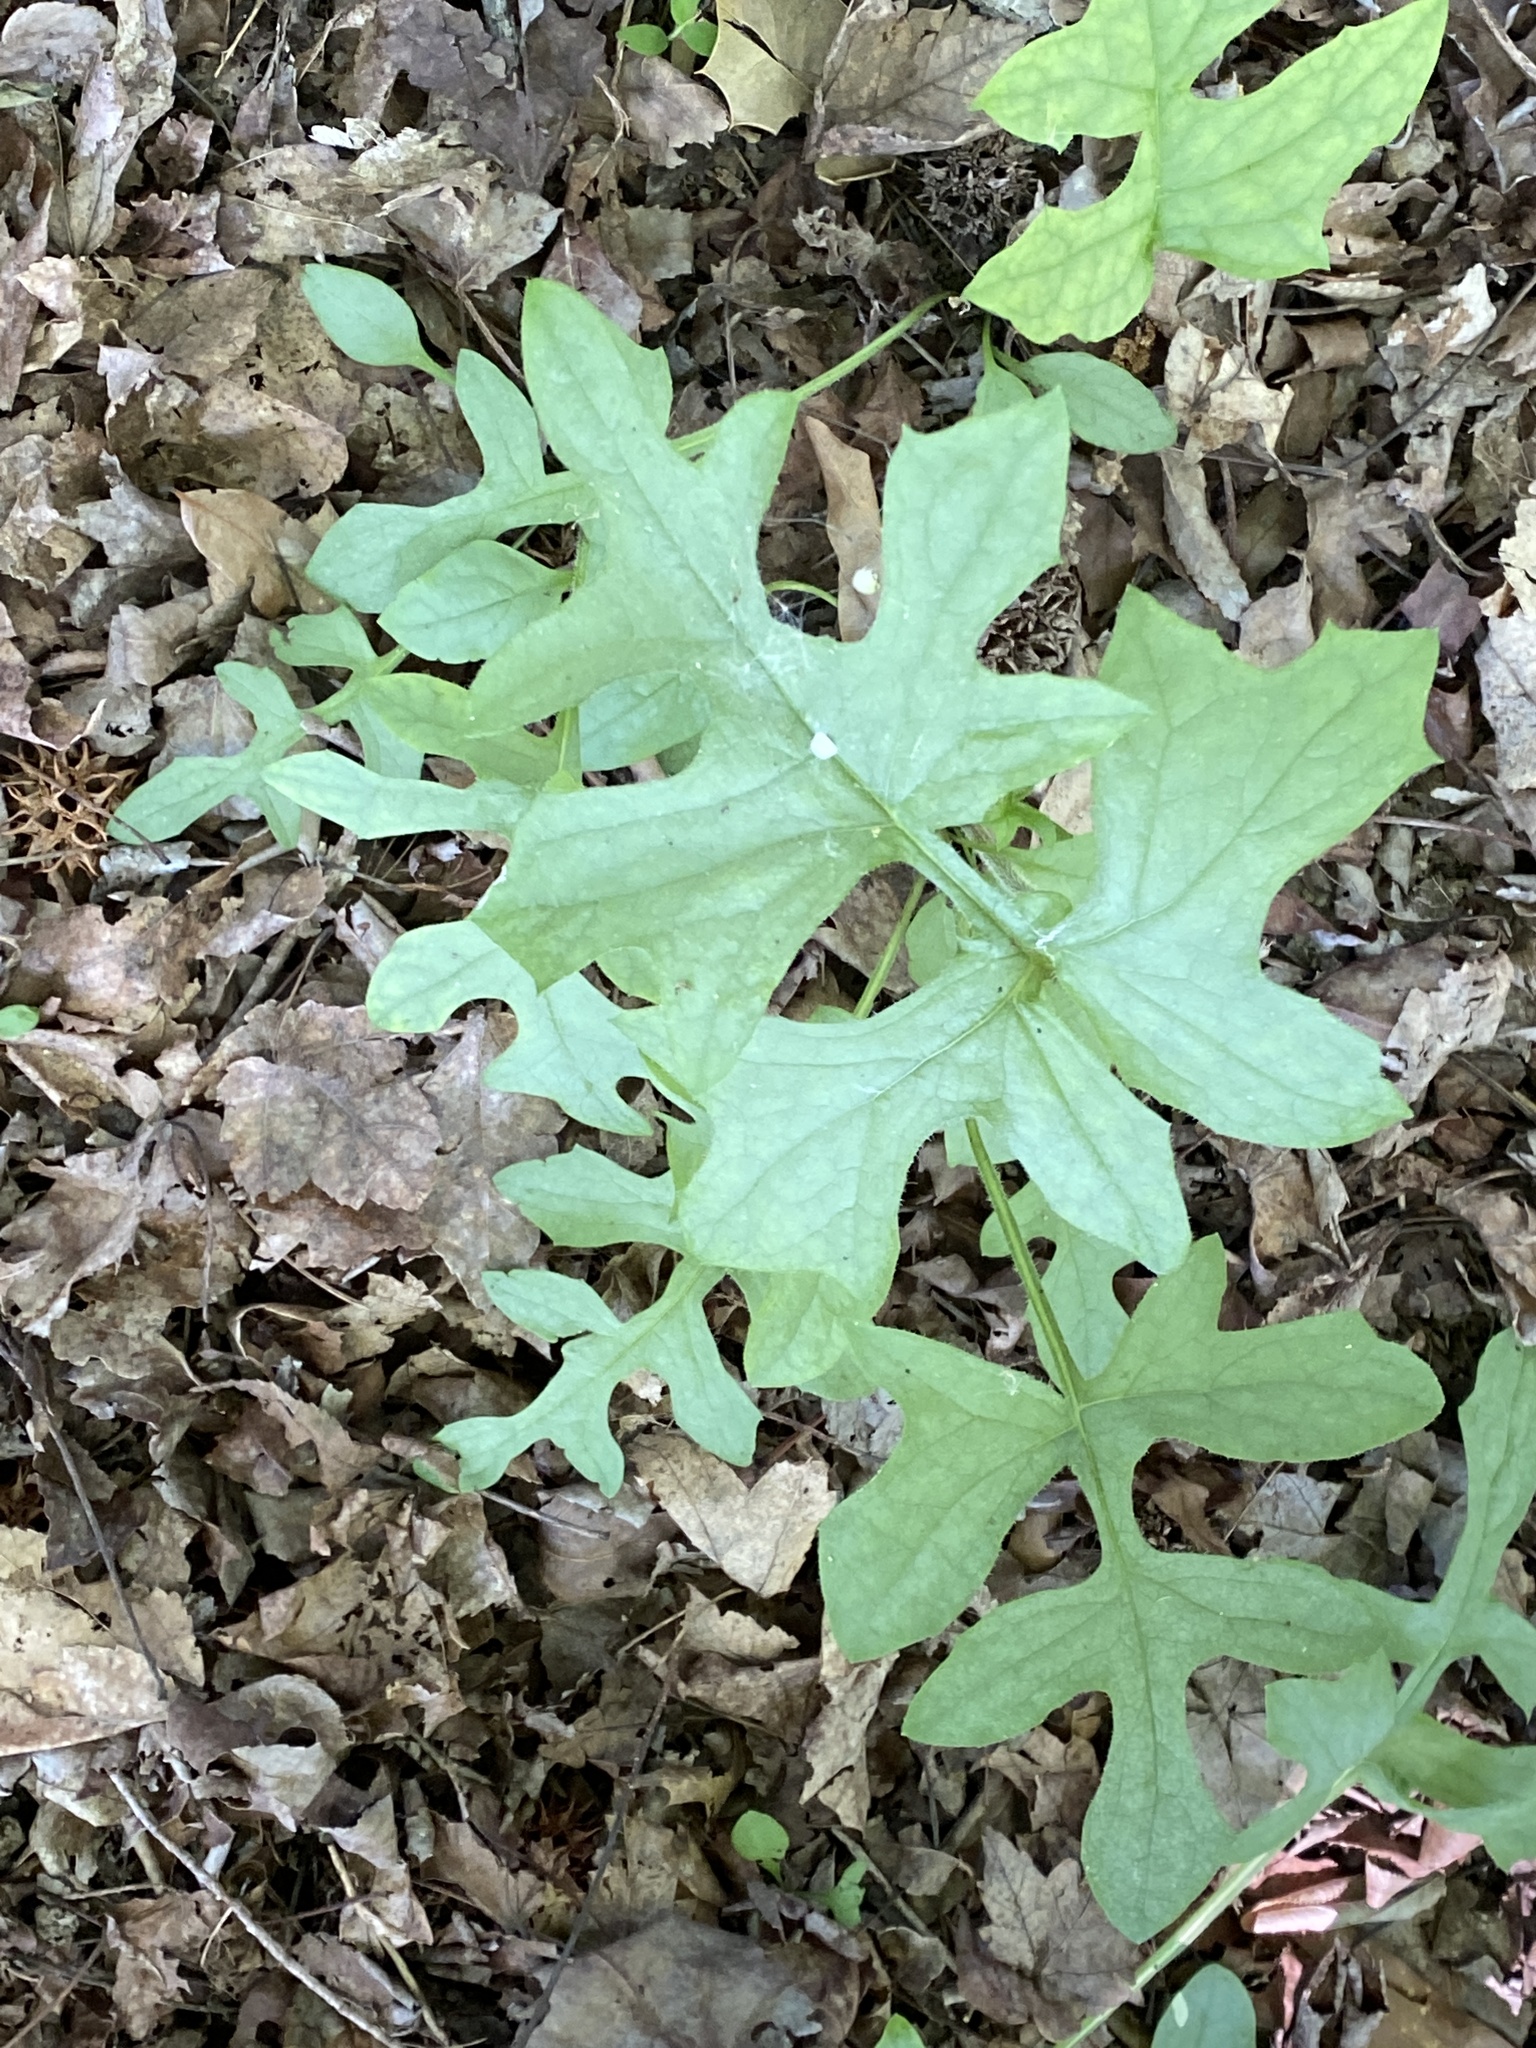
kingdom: Plantae
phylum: Tracheophyta
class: Magnoliopsida
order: Asterales
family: Asteraceae
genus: Nabalus
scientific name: Nabalus serpentarius
